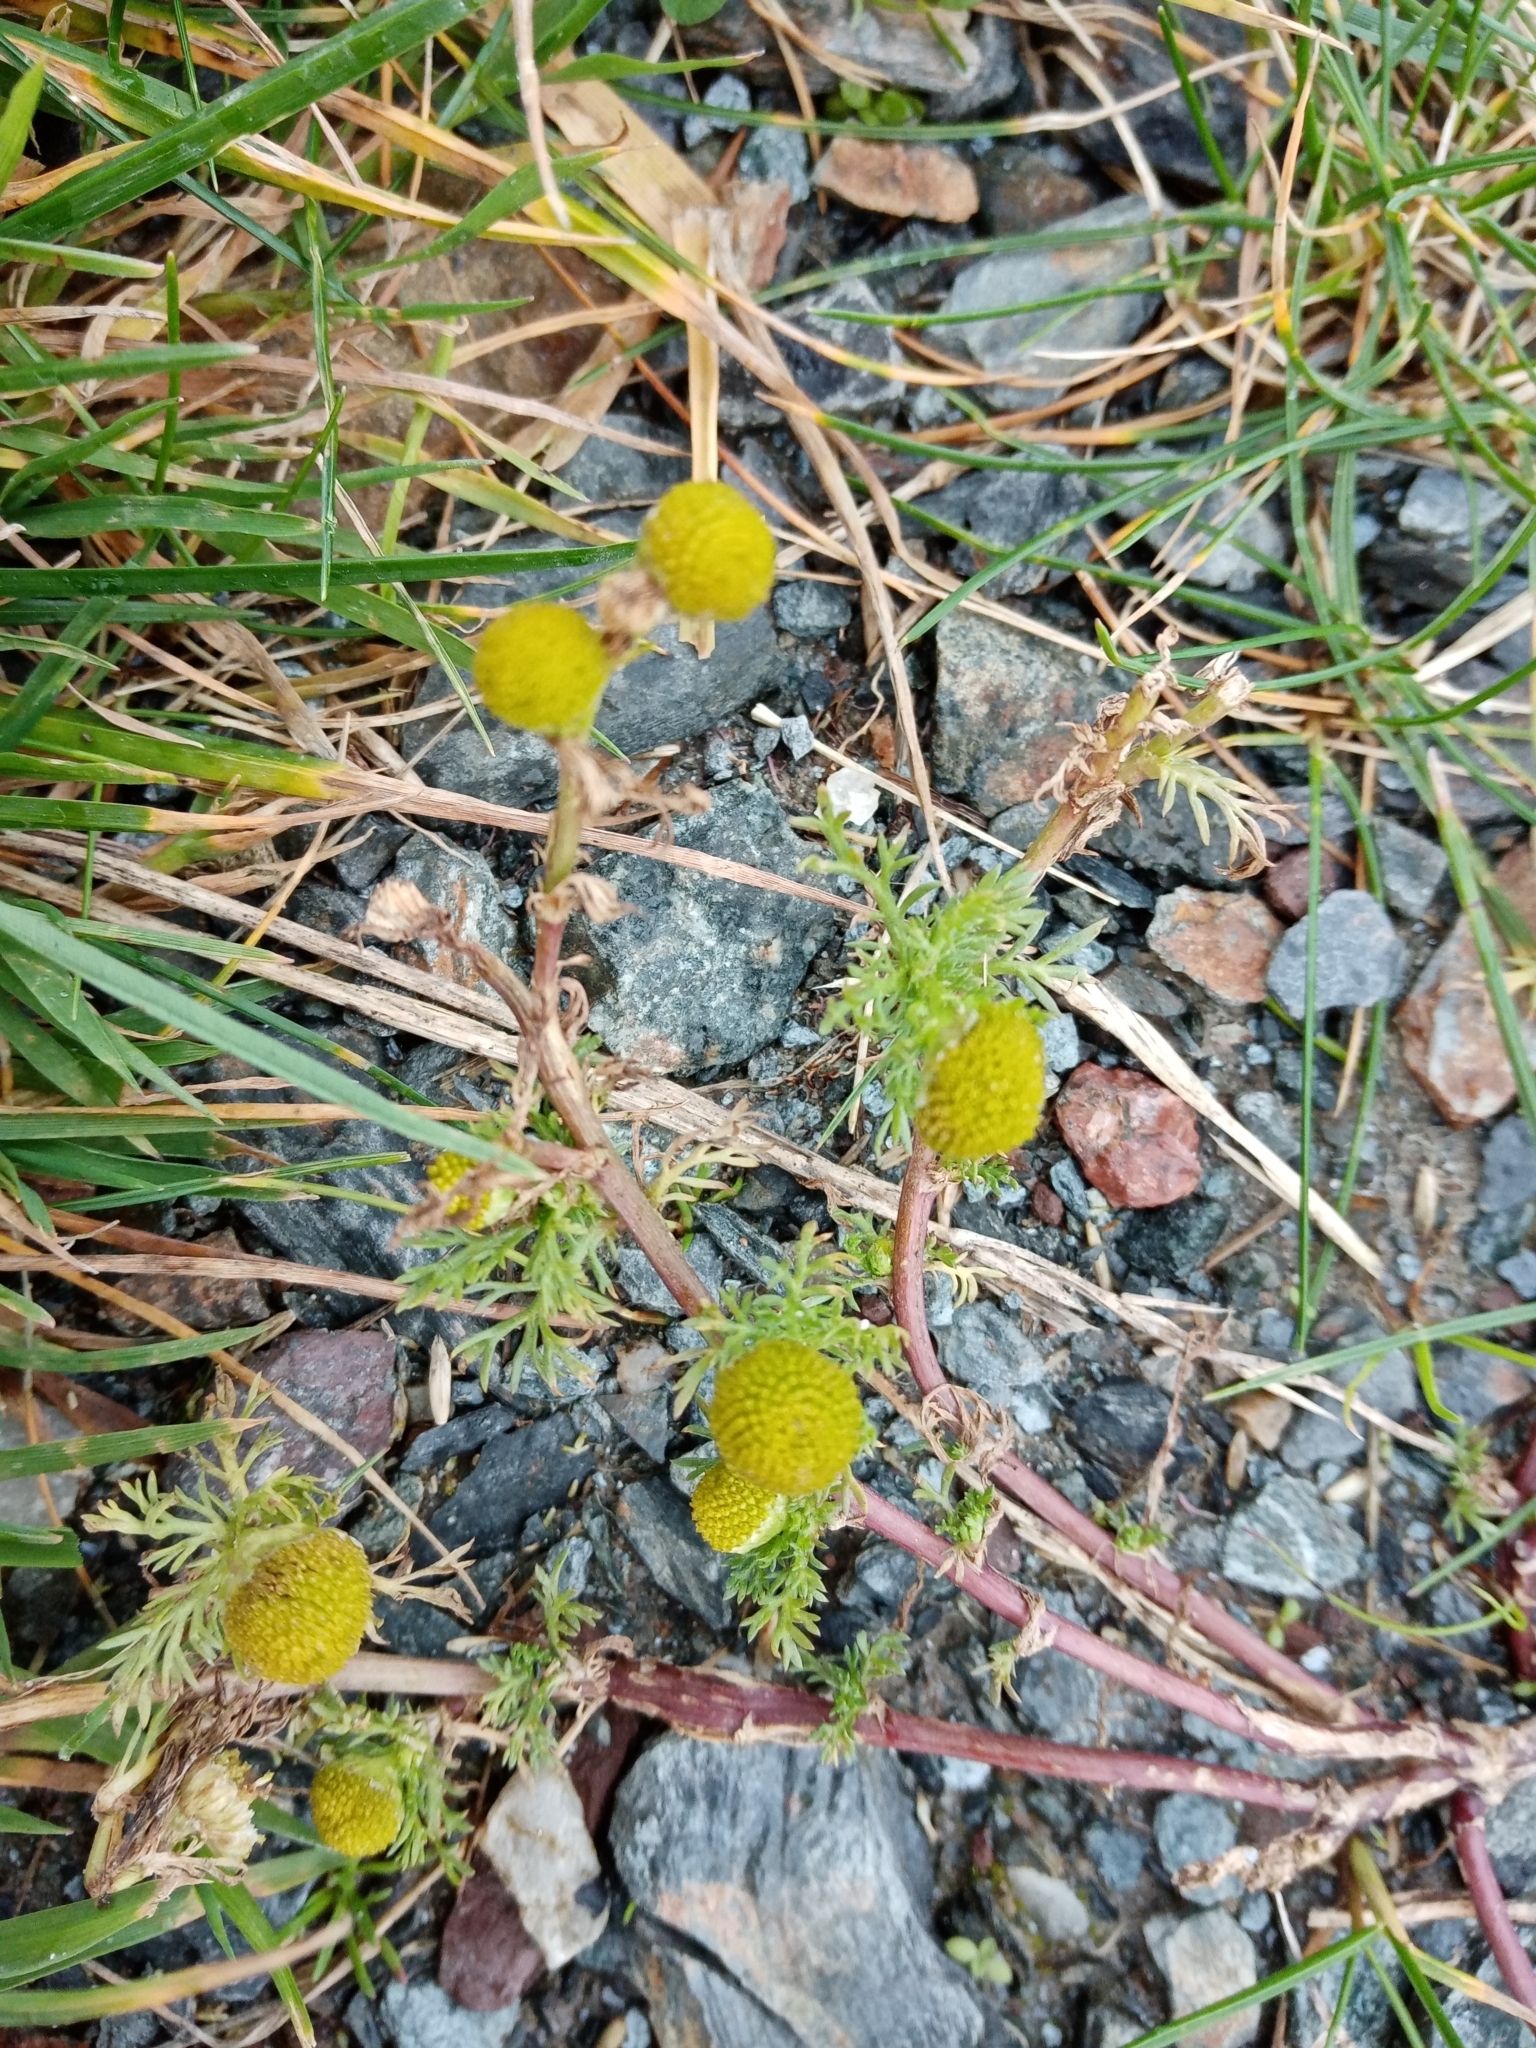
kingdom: Plantae
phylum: Tracheophyta
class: Magnoliopsida
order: Asterales
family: Asteraceae
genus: Matricaria
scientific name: Matricaria discoidea
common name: Disc mayweed
